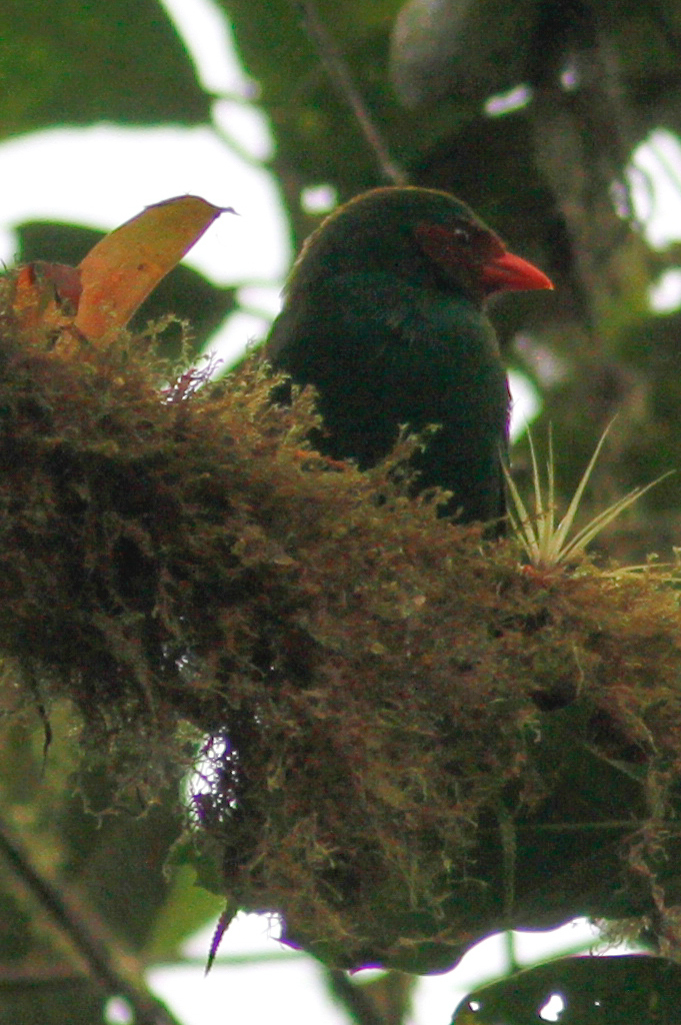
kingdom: Animalia
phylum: Chordata
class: Aves
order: Passeriformes
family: Thraupidae
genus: Chlorornis
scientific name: Chlorornis riefferii
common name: Grass-green tanager
